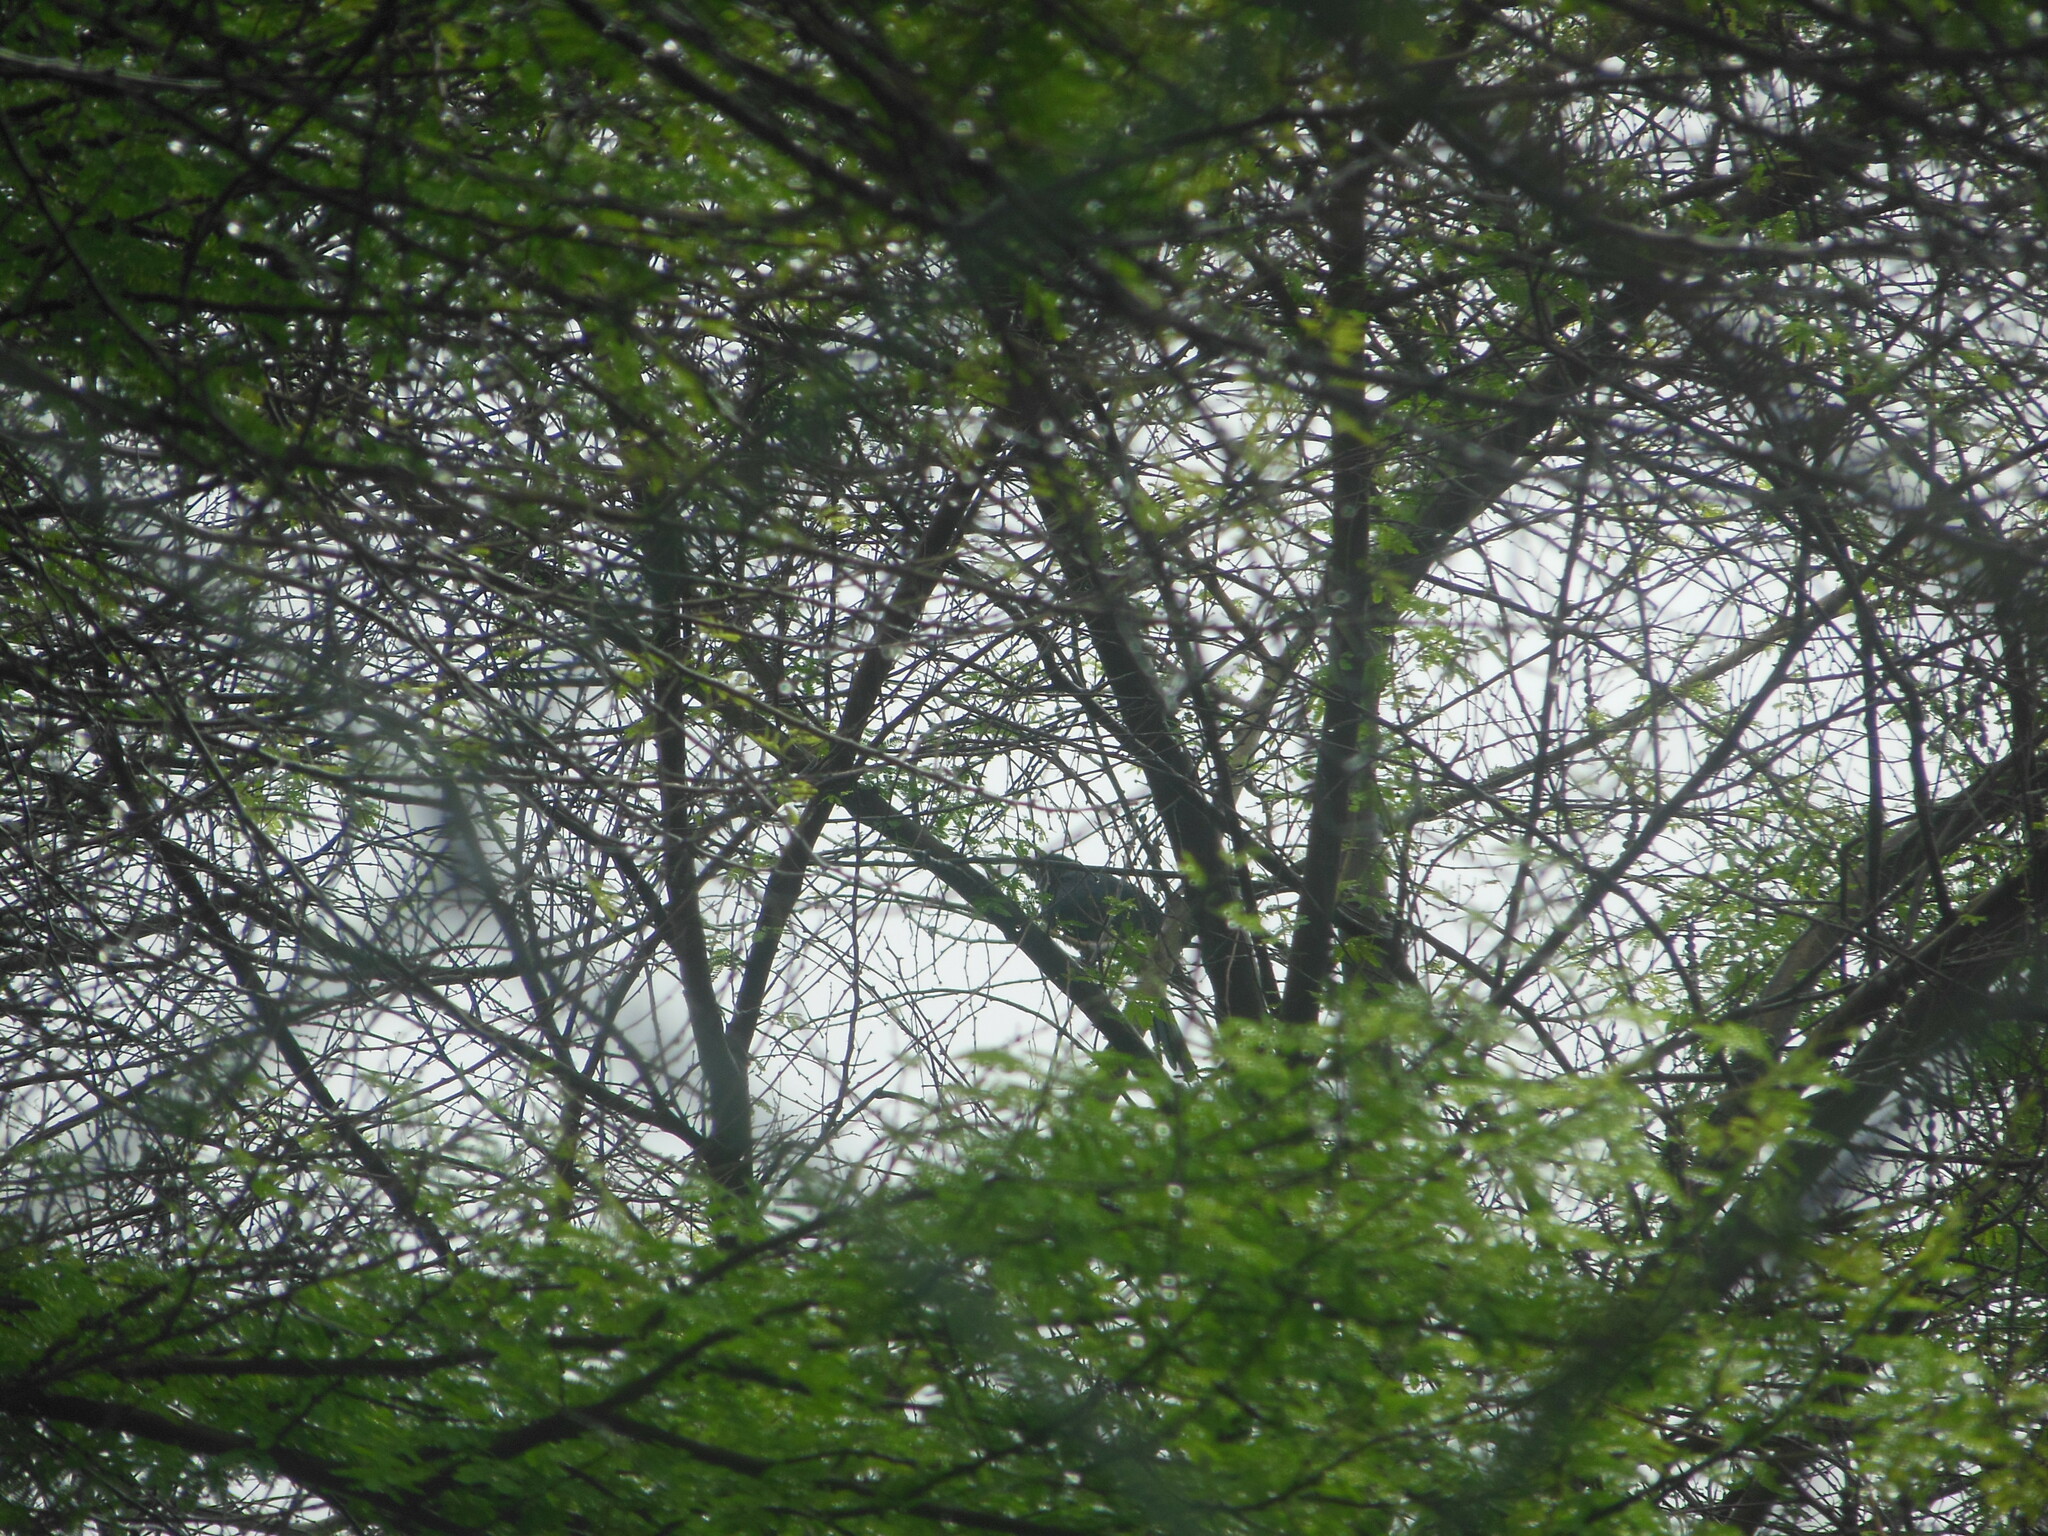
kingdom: Animalia
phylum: Chordata
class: Aves
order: Cuculiformes
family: Cuculidae
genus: Eudynamys
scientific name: Eudynamys scolopaceus
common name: Asian koel
